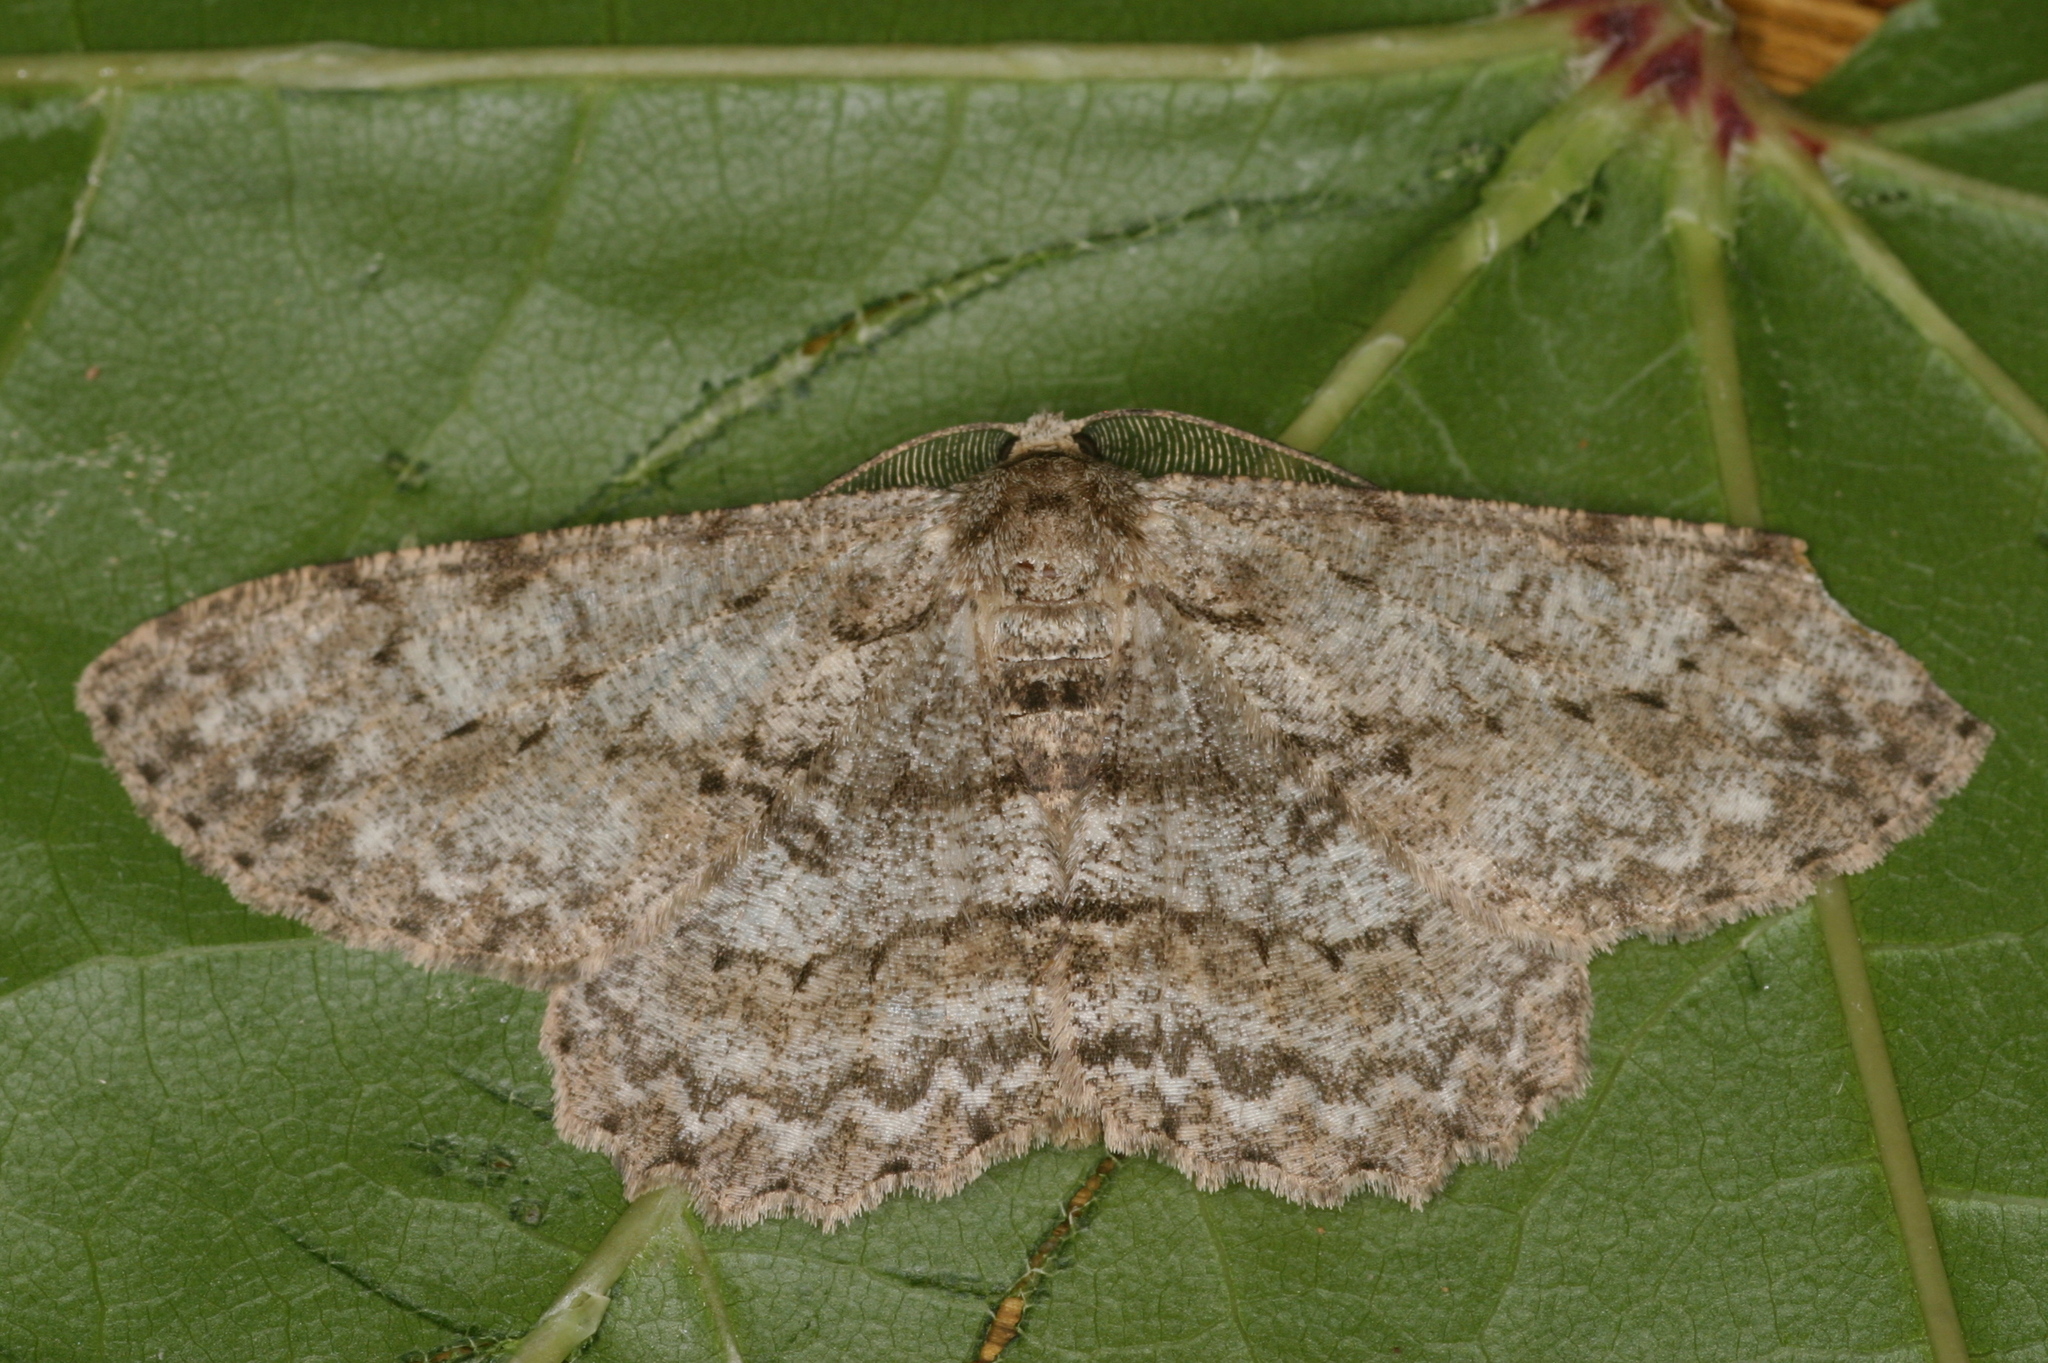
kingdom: Animalia
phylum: Arthropoda
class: Insecta
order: Lepidoptera
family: Geometridae
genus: Hypomecis
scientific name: Hypomecis punctinalis
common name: Pale oak beauty
